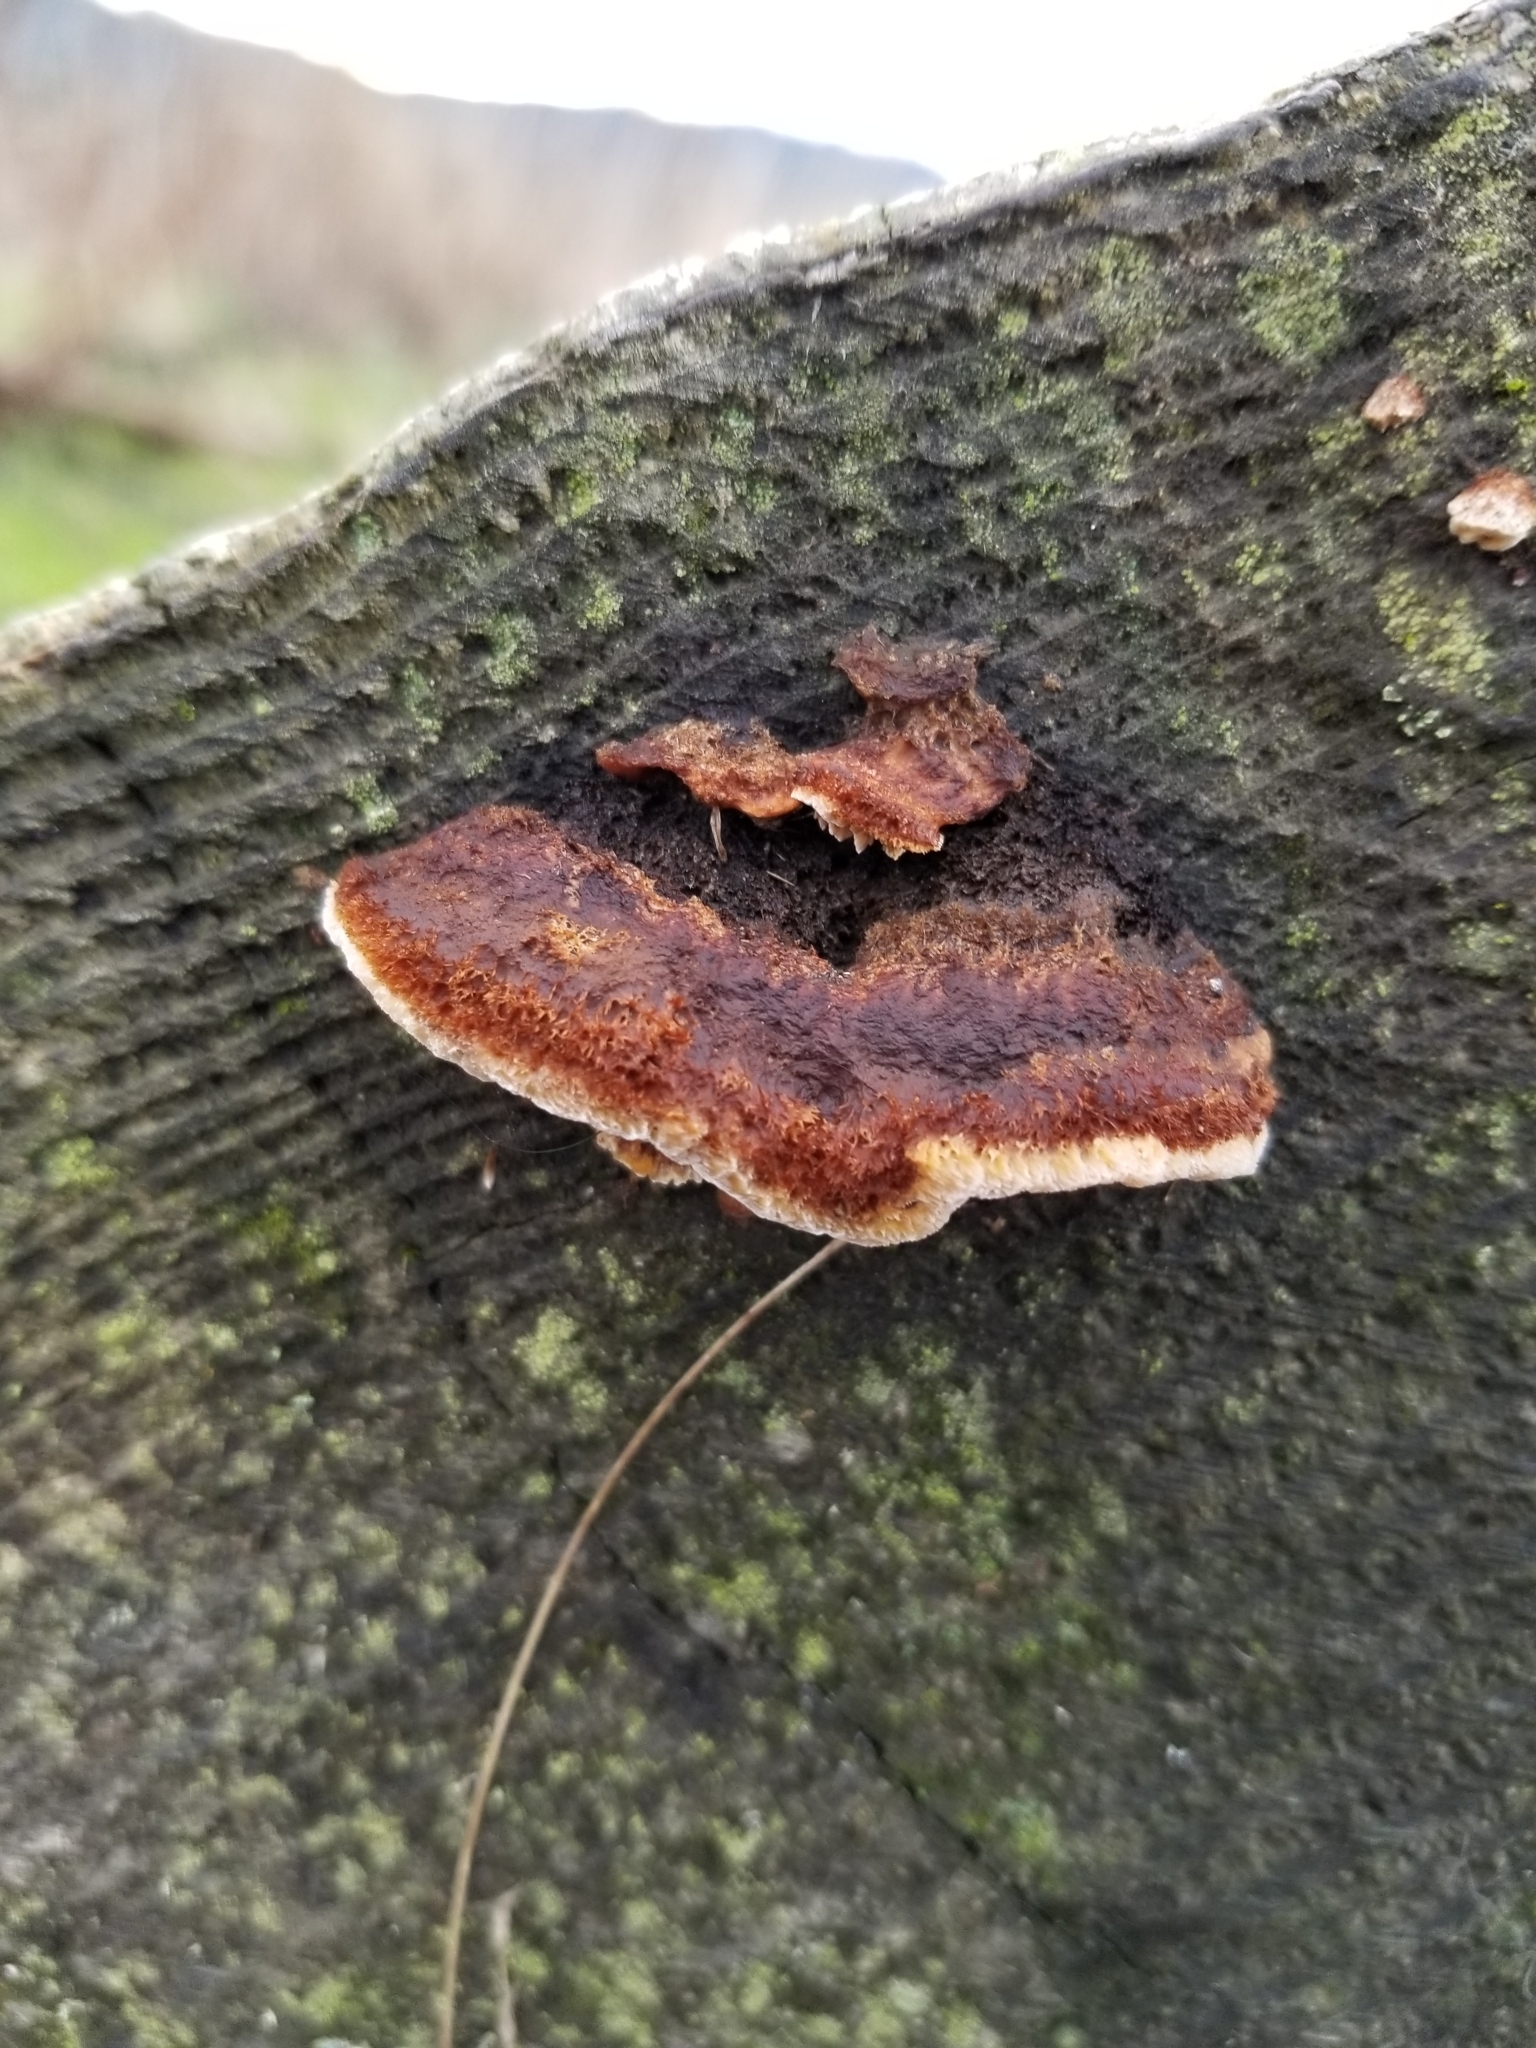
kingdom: Fungi
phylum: Basidiomycota
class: Agaricomycetes
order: Gloeophyllales
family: Gloeophyllaceae
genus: Gloeophyllum
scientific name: Gloeophyllum sepiarium
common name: Conifer mazegill
